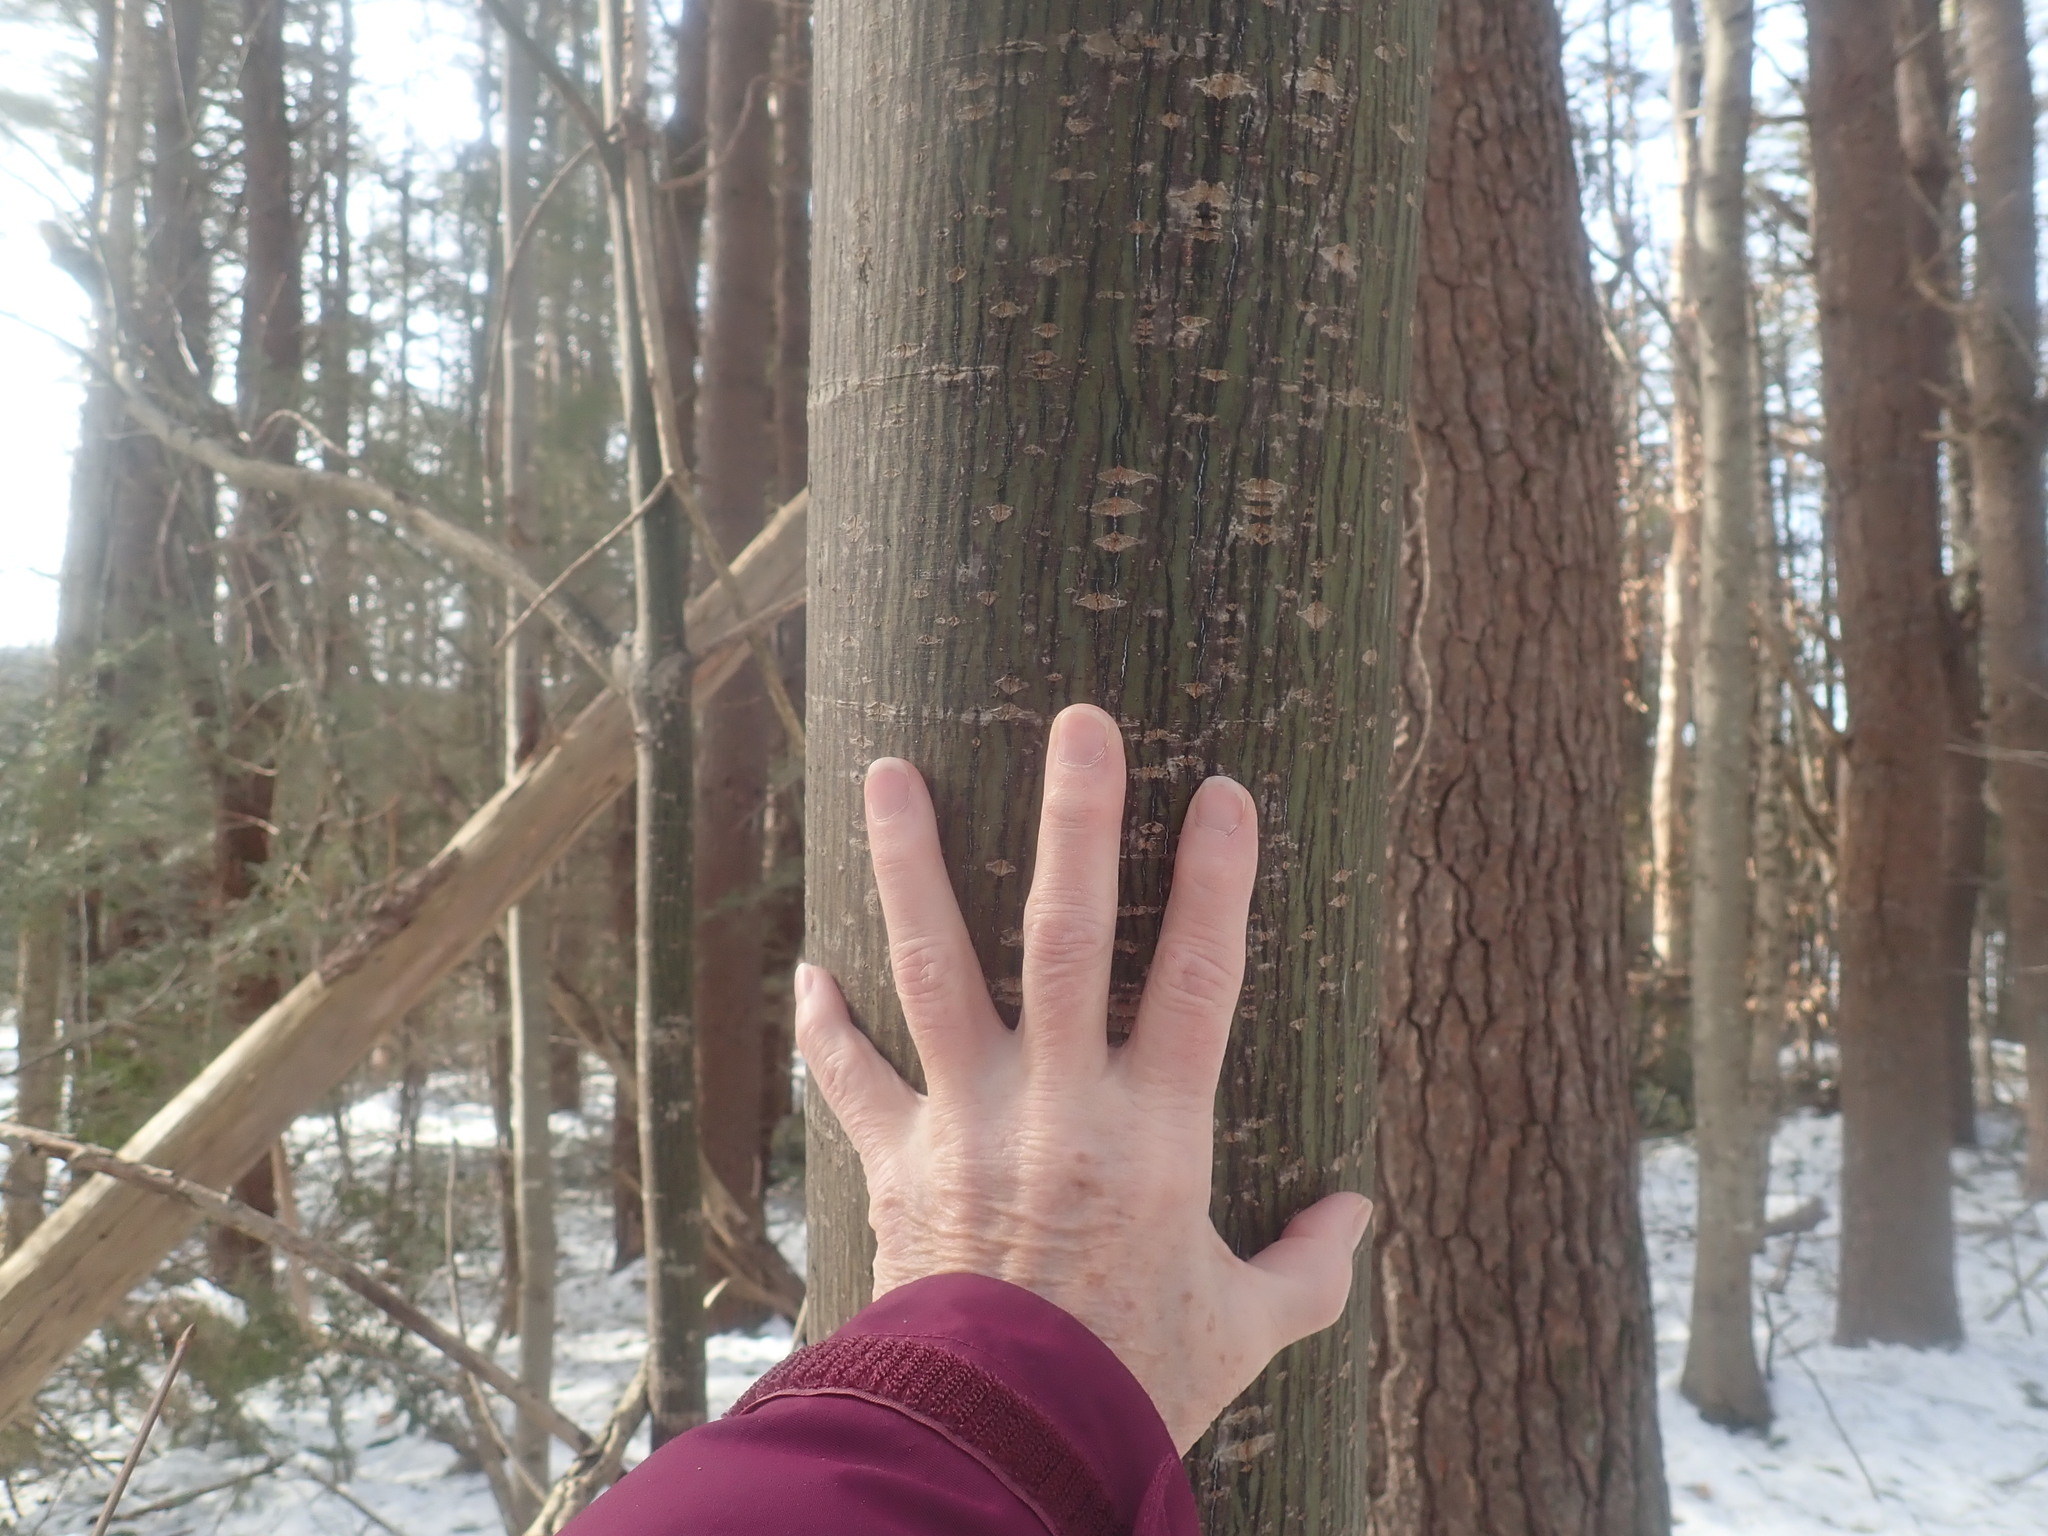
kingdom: Plantae
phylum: Tracheophyta
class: Magnoliopsida
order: Sapindales
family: Sapindaceae
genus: Acer
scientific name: Acer pensylvanicum
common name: Moosewood
